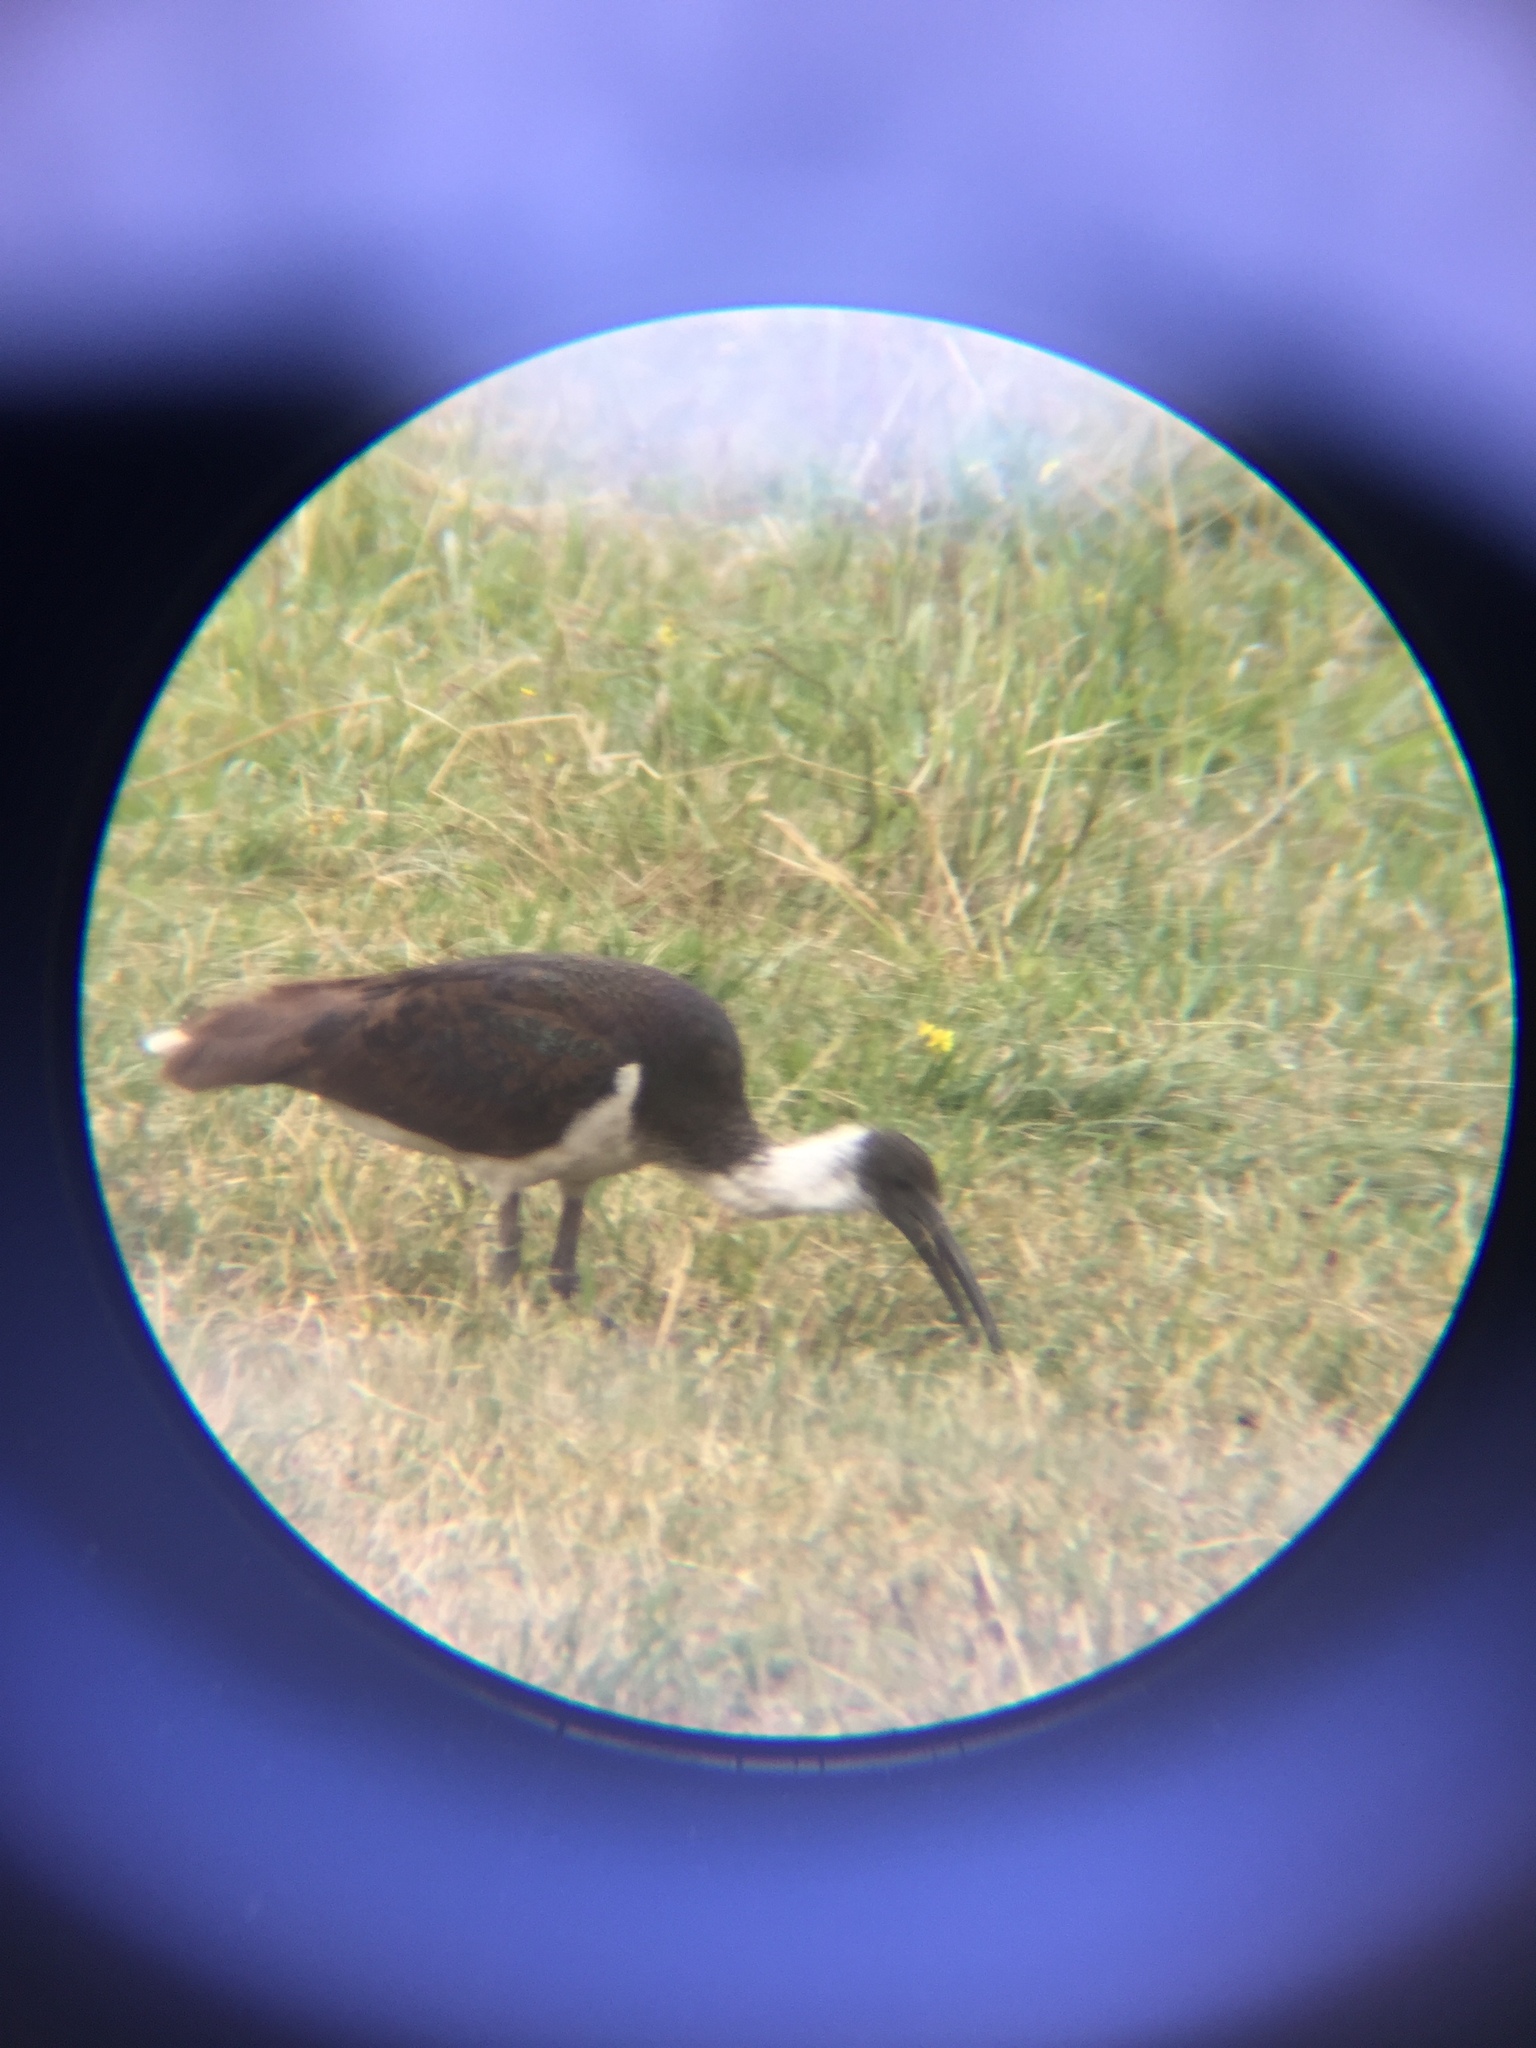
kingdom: Animalia
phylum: Chordata
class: Aves
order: Pelecaniformes
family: Threskiornithidae
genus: Threskiornis
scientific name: Threskiornis spinicollis
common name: Straw-necked ibis
